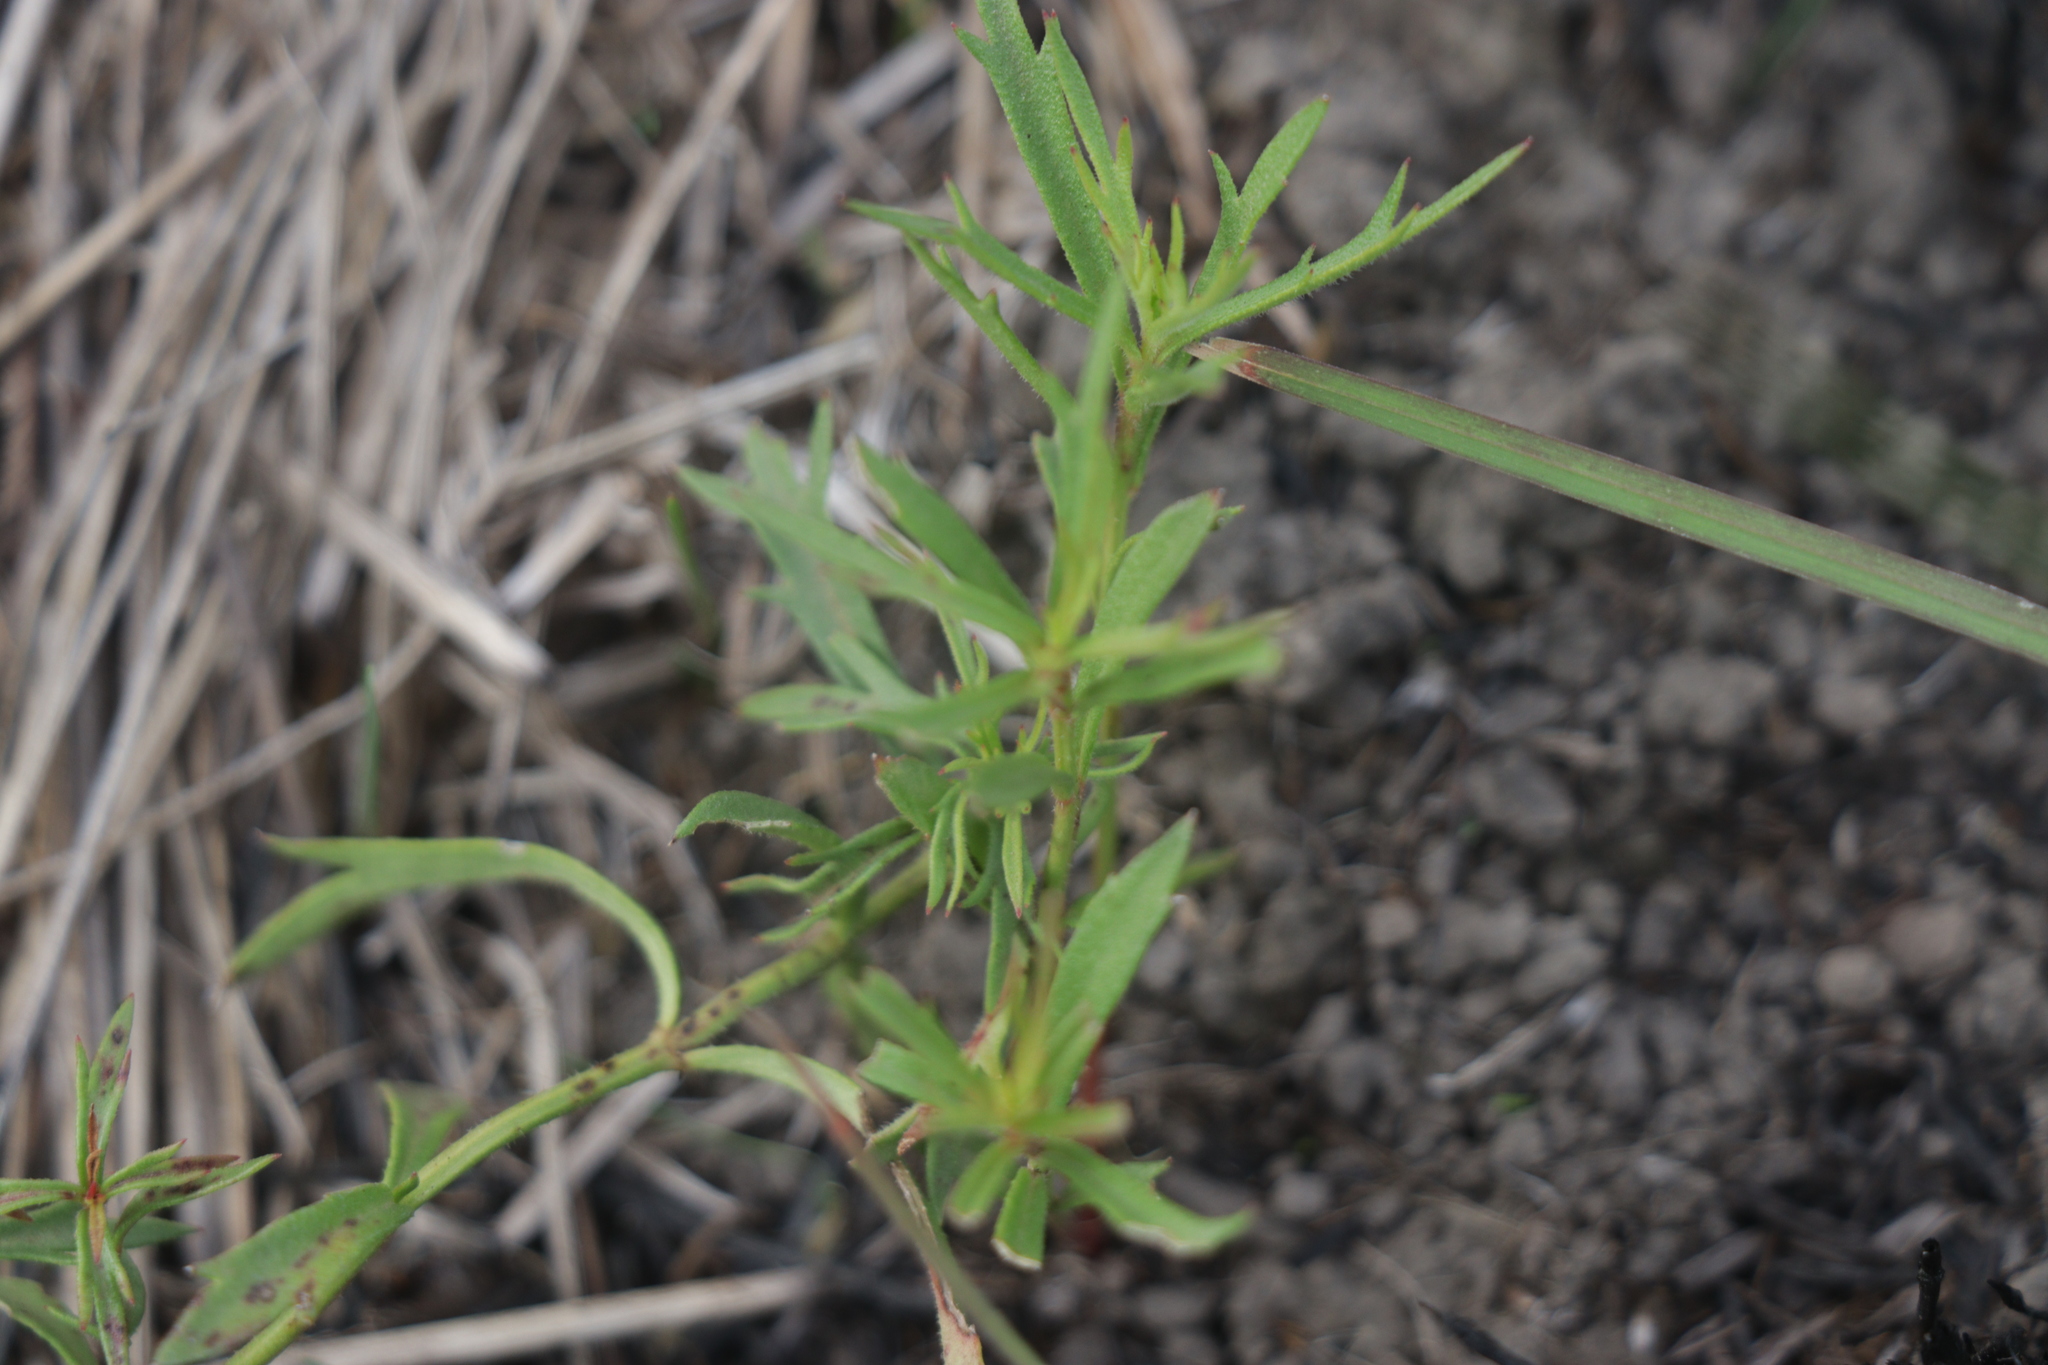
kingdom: Plantae
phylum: Tracheophyta
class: Magnoliopsida
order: Saxifragales
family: Haloragaceae
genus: Haloragis
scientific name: Haloragis heterophylla
